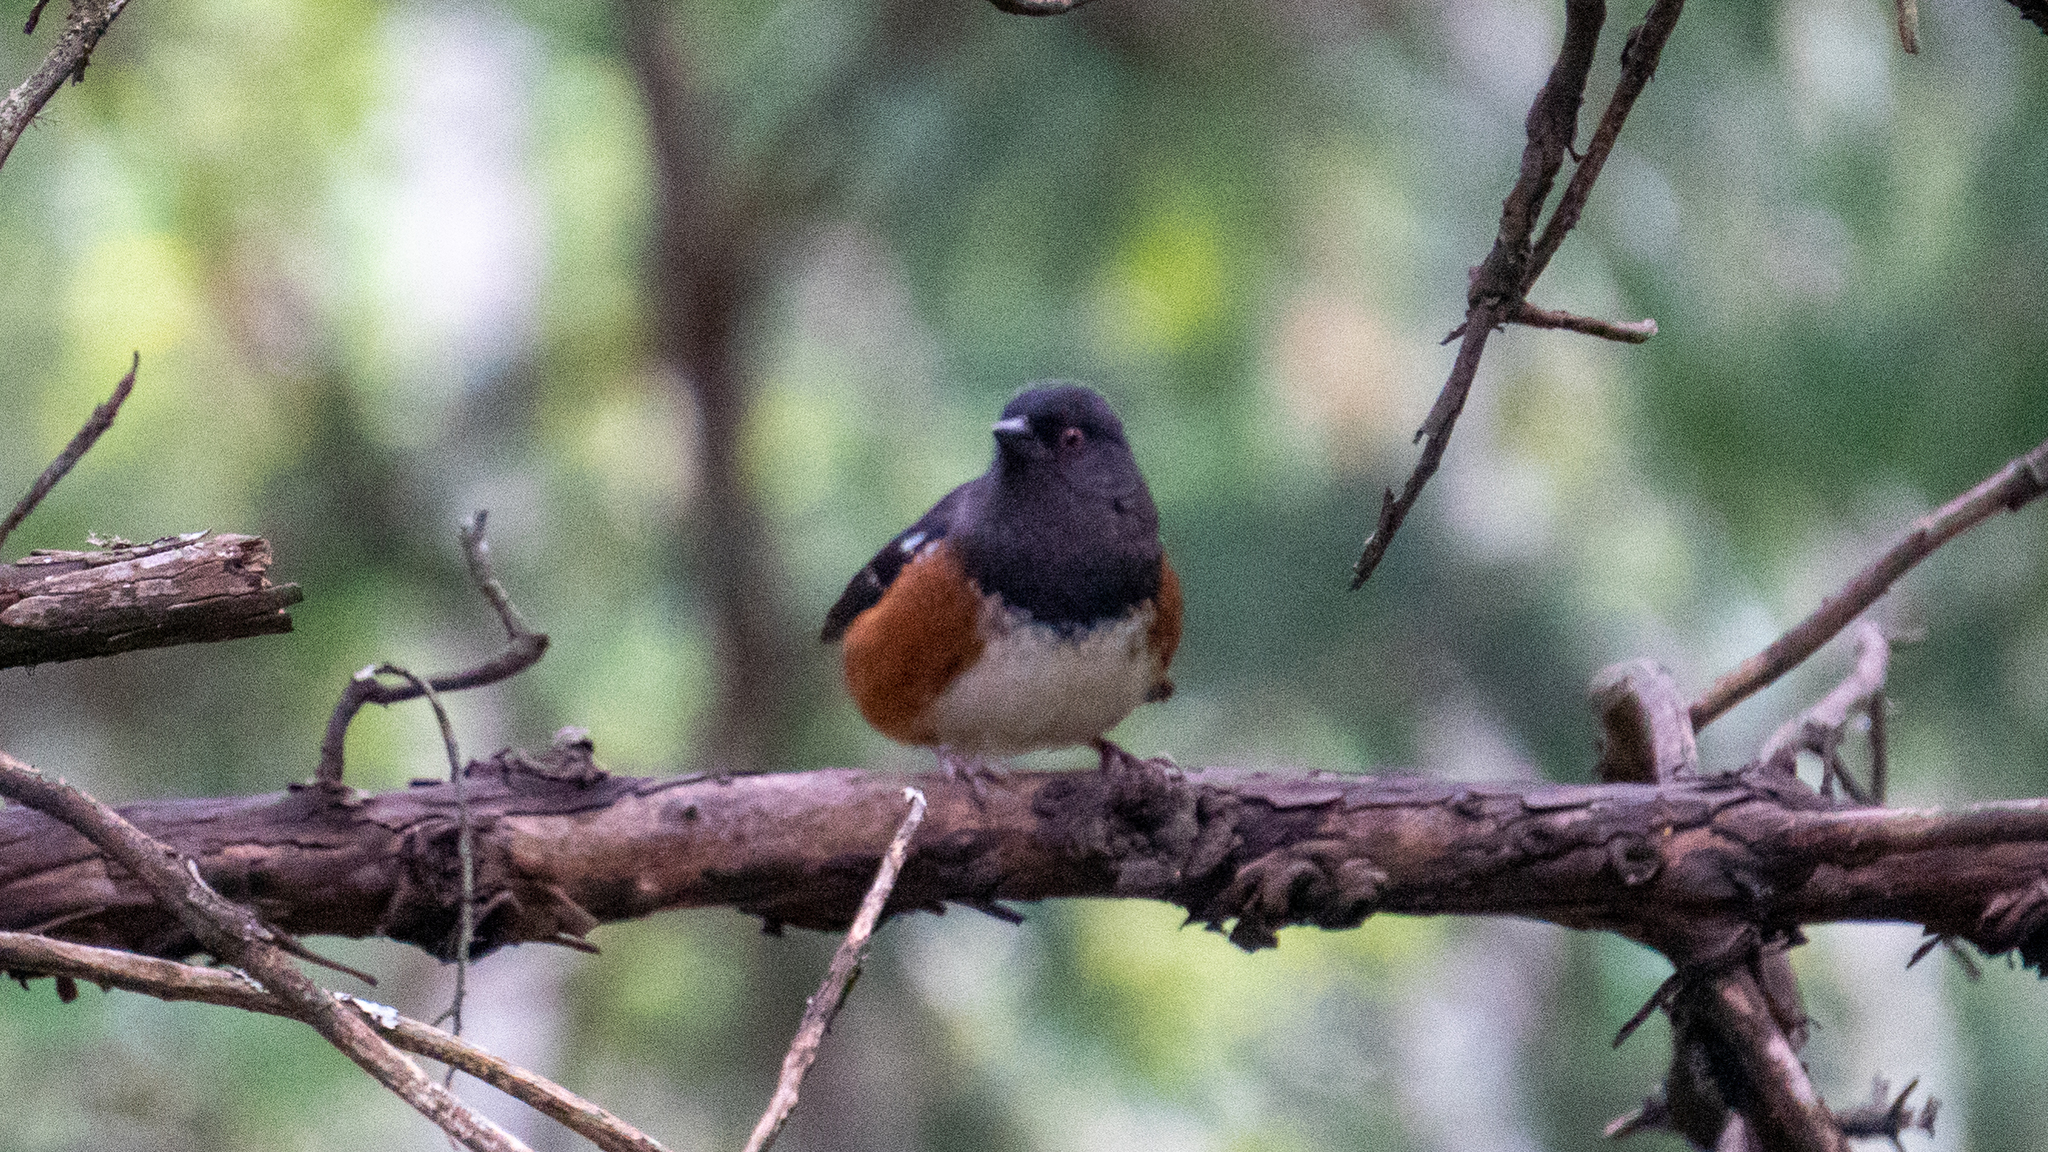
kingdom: Animalia
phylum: Chordata
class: Aves
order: Passeriformes
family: Passerellidae
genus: Pipilo
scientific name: Pipilo maculatus
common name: Spotted towhee
